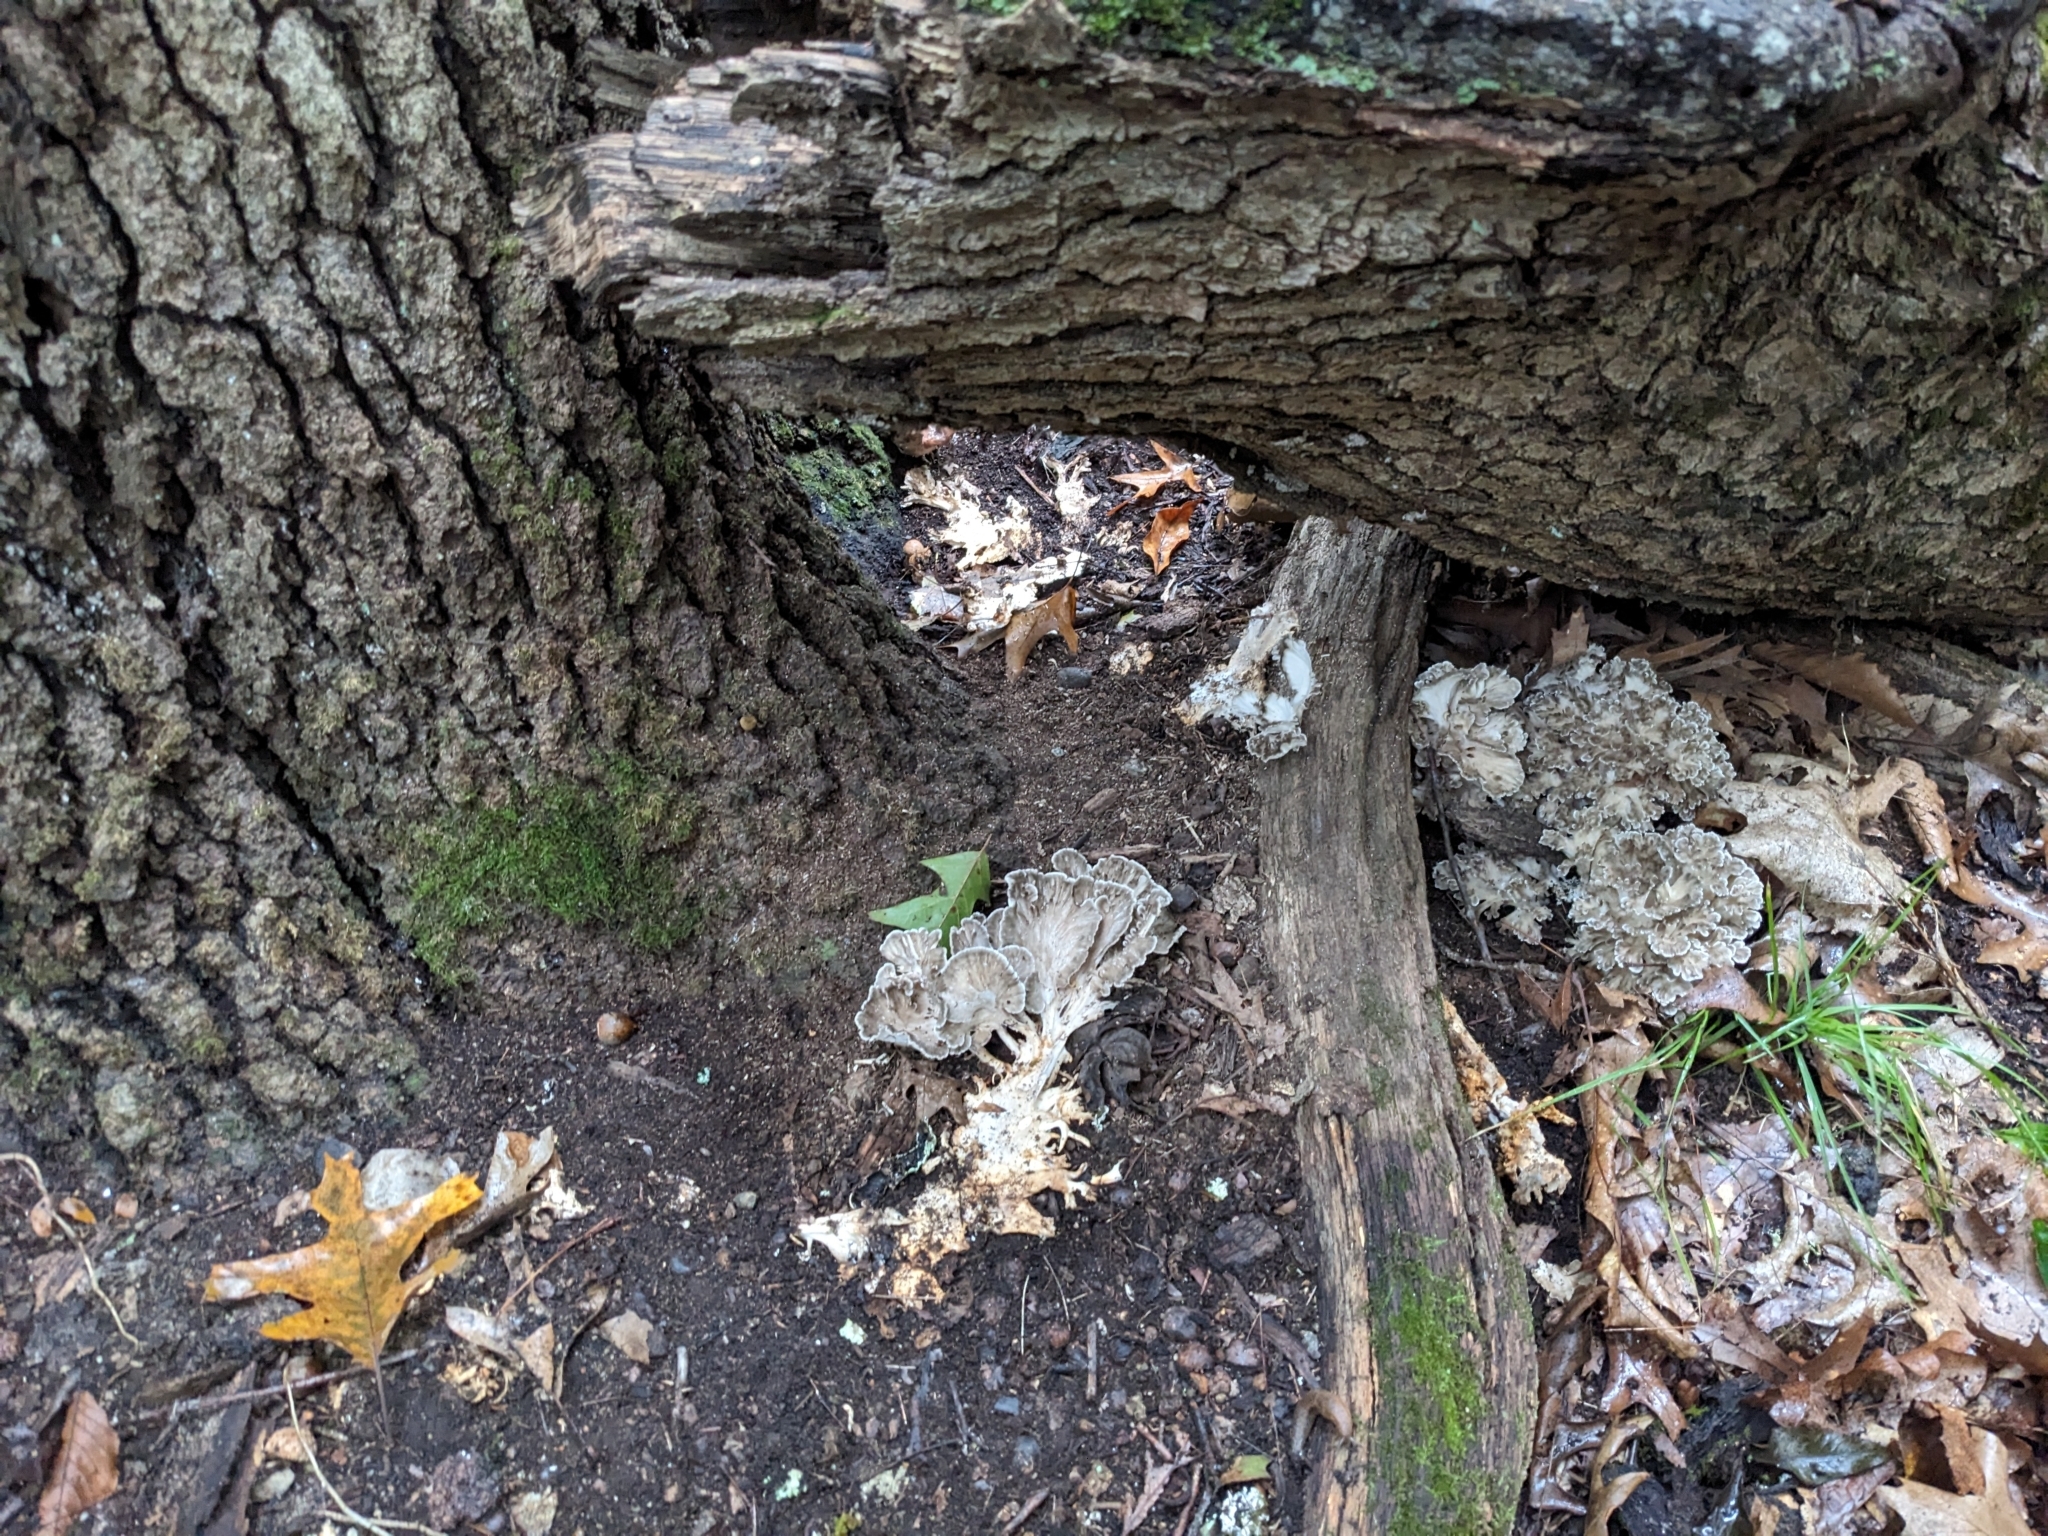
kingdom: Fungi
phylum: Basidiomycota
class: Agaricomycetes
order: Polyporales
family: Grifolaceae
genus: Grifola
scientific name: Grifola frondosa
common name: Hen of the woods
